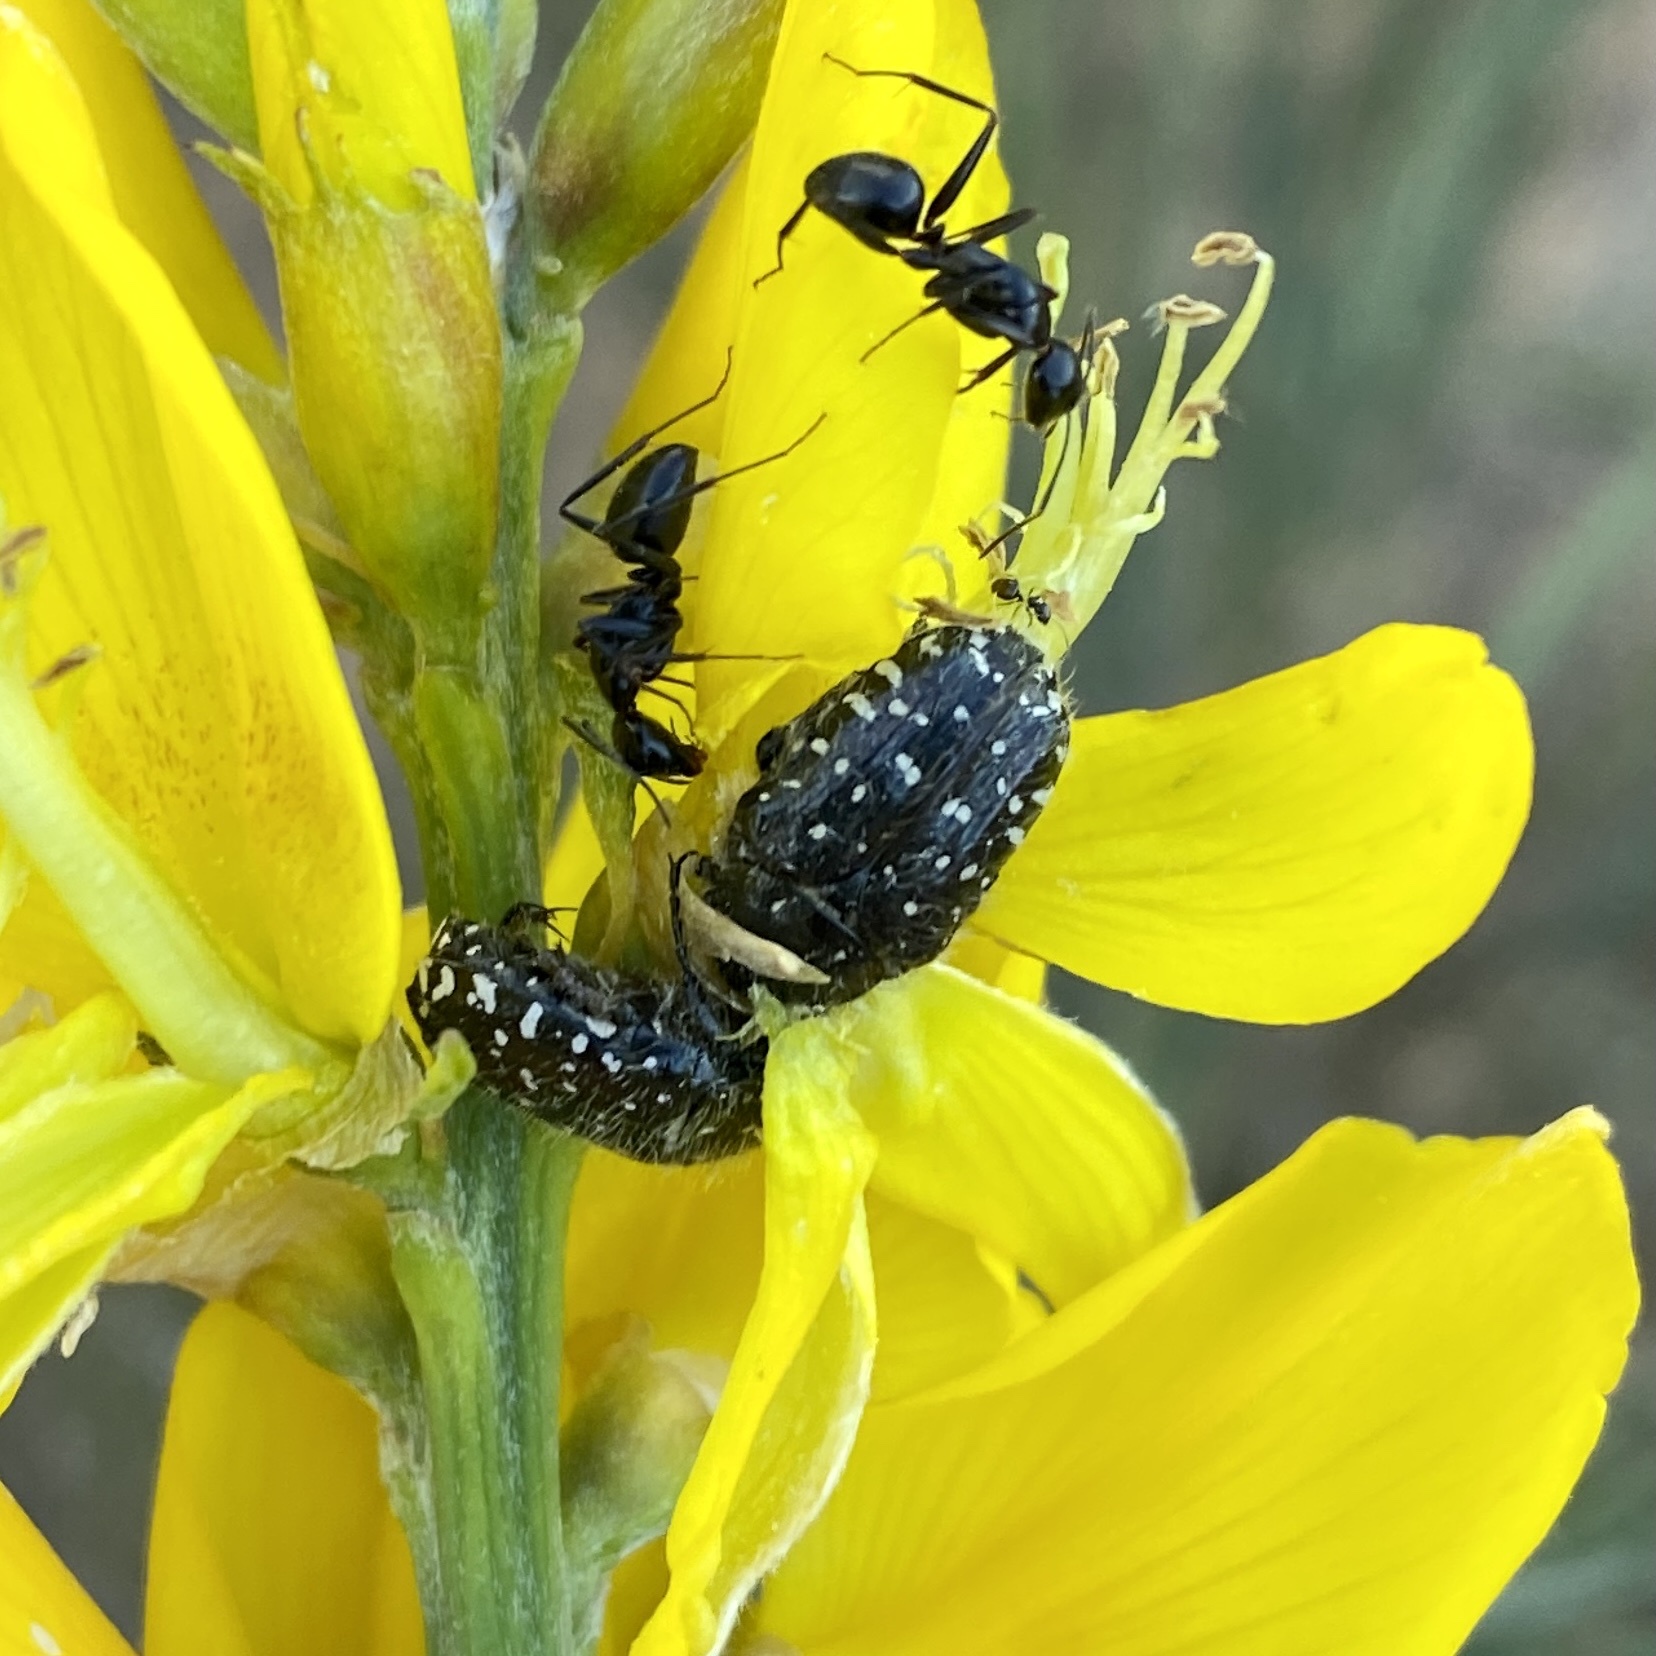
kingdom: Animalia
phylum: Arthropoda
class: Insecta
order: Coleoptera
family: Scarabaeidae
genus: Oxythyrea
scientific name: Oxythyrea funesta
